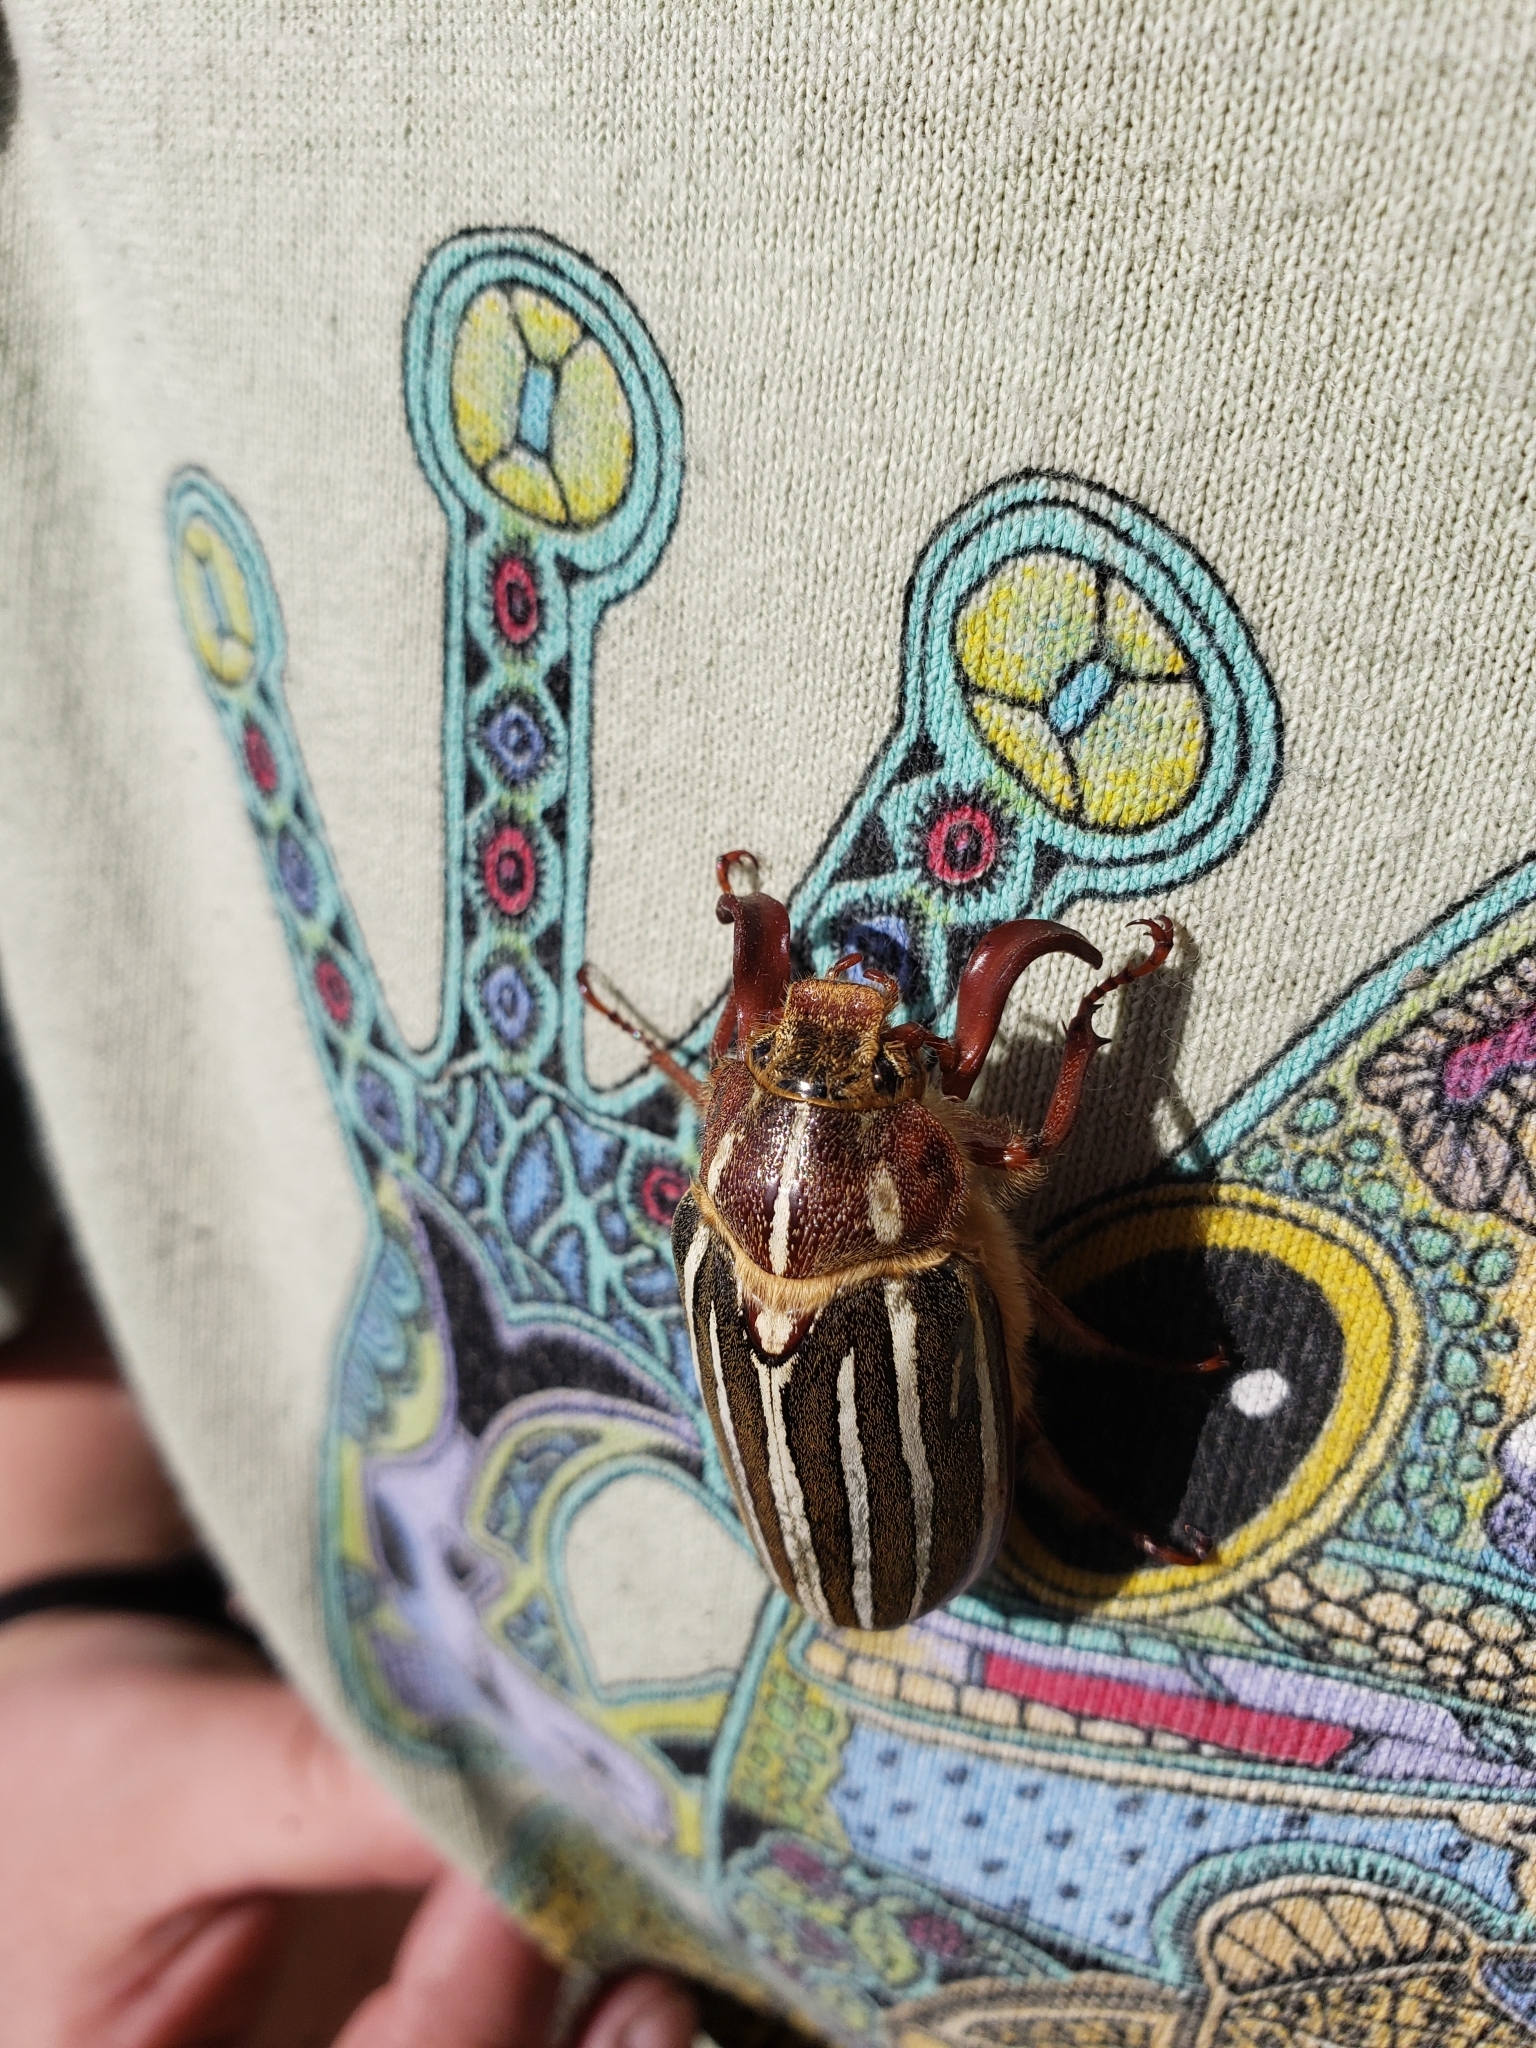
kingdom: Animalia
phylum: Arthropoda
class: Insecta
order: Coleoptera
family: Scarabaeidae
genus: Polyphylla
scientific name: Polyphylla crinita
